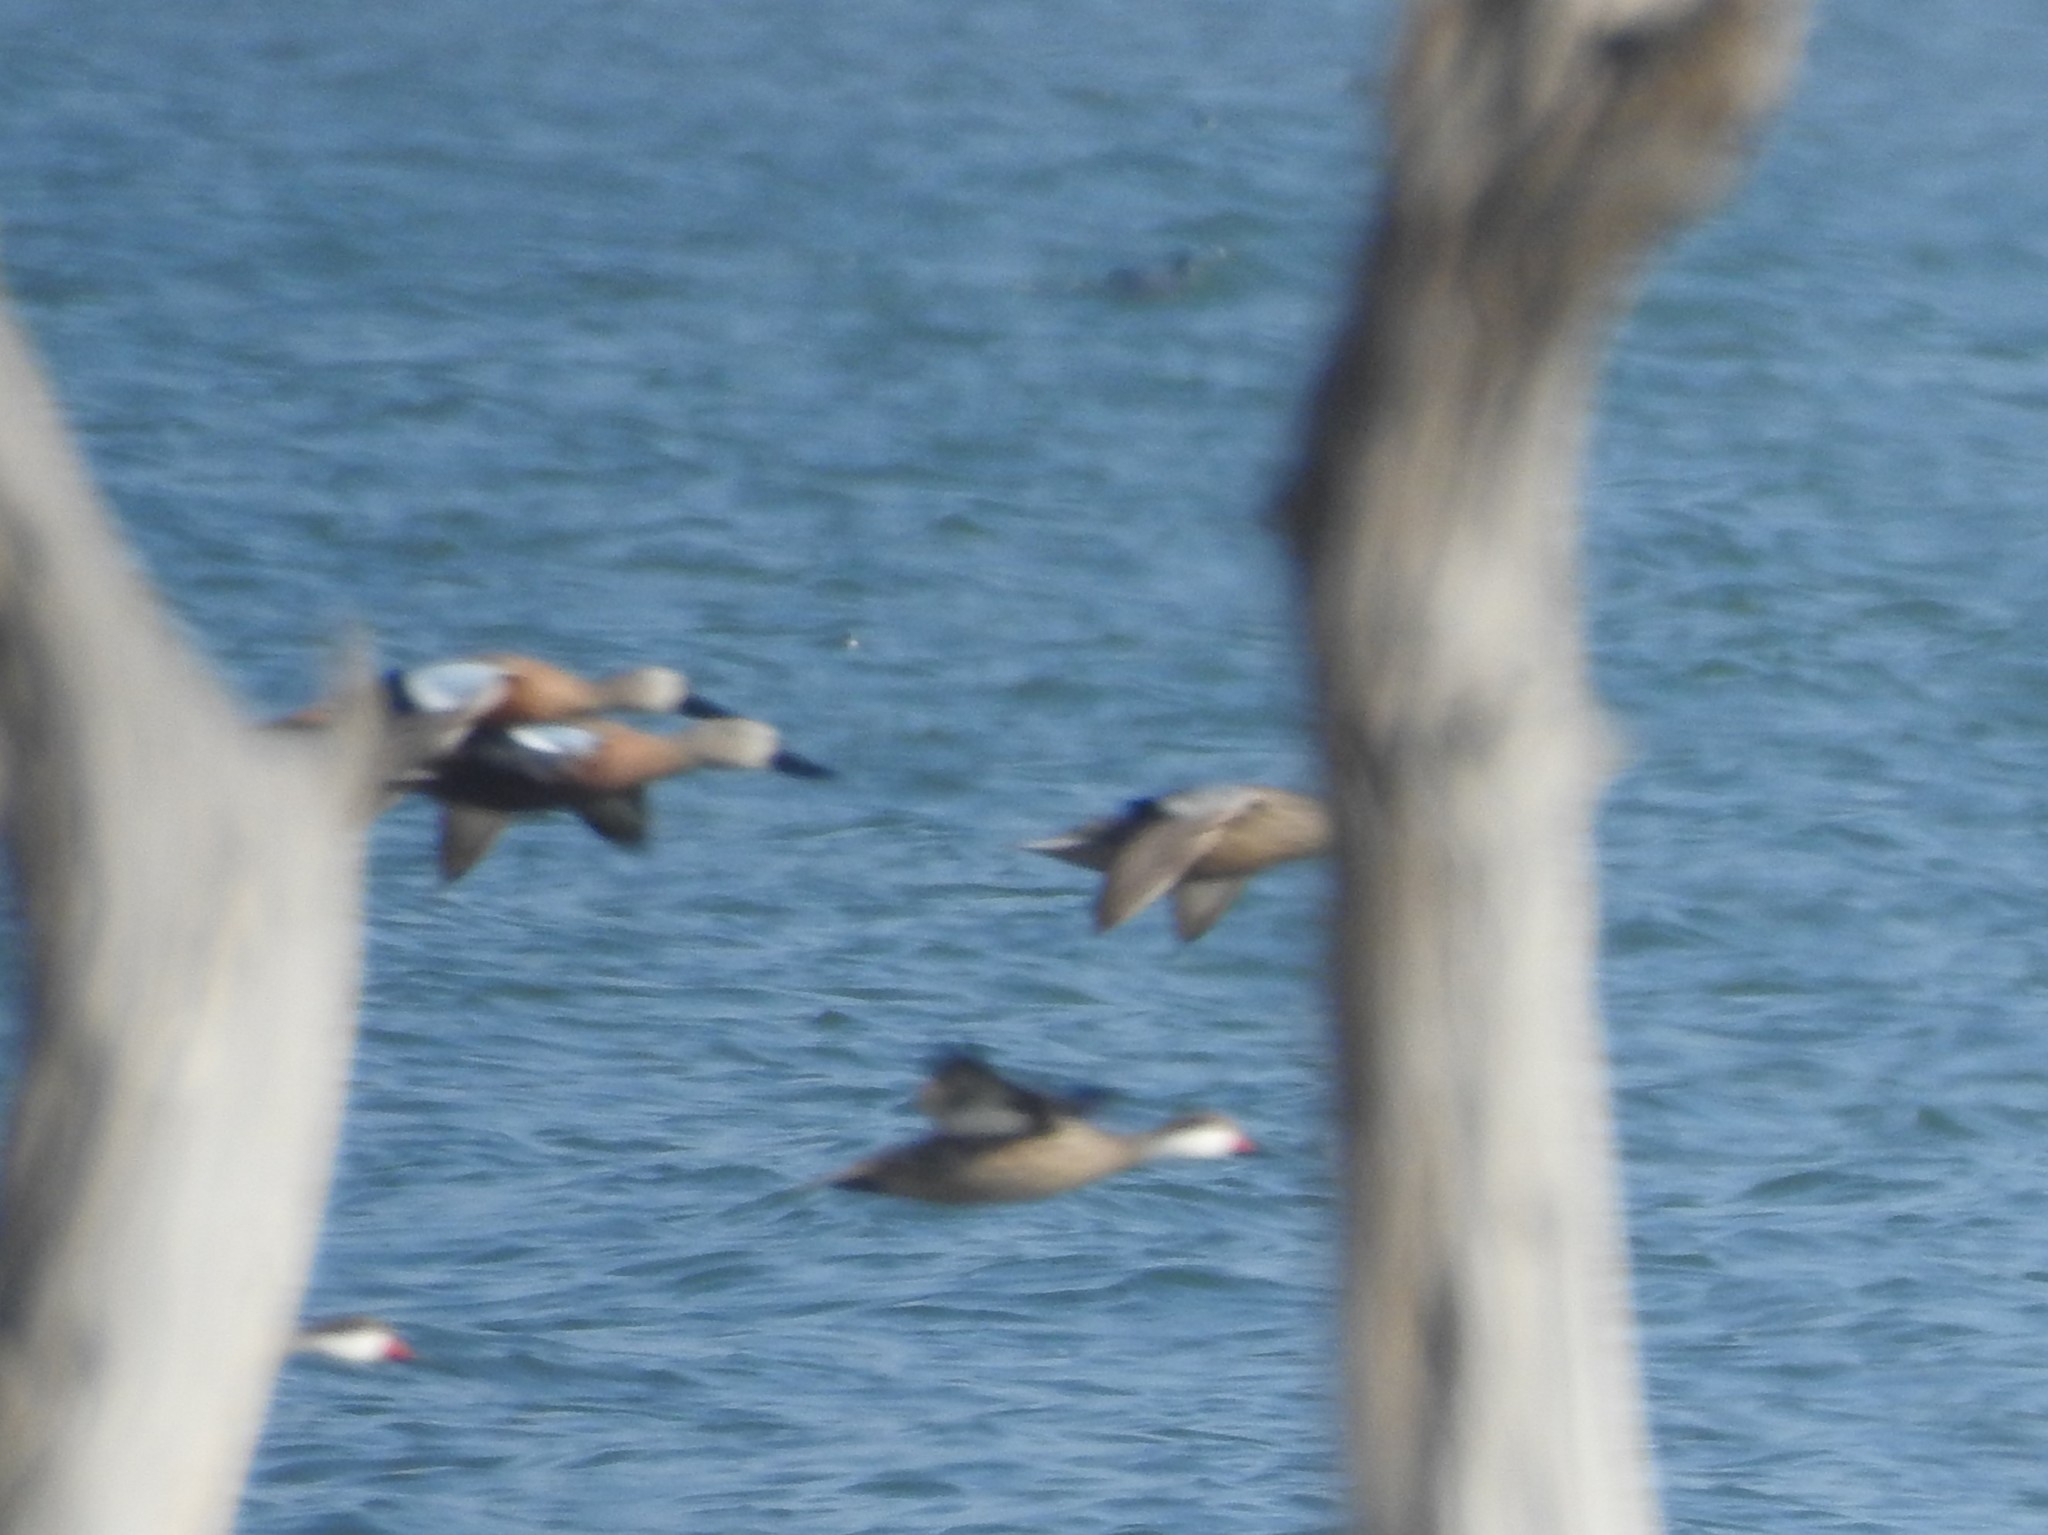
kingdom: Animalia
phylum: Chordata
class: Aves
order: Anseriformes
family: Anatidae
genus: Spatula
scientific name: Spatula platalea
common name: Red shoveler
